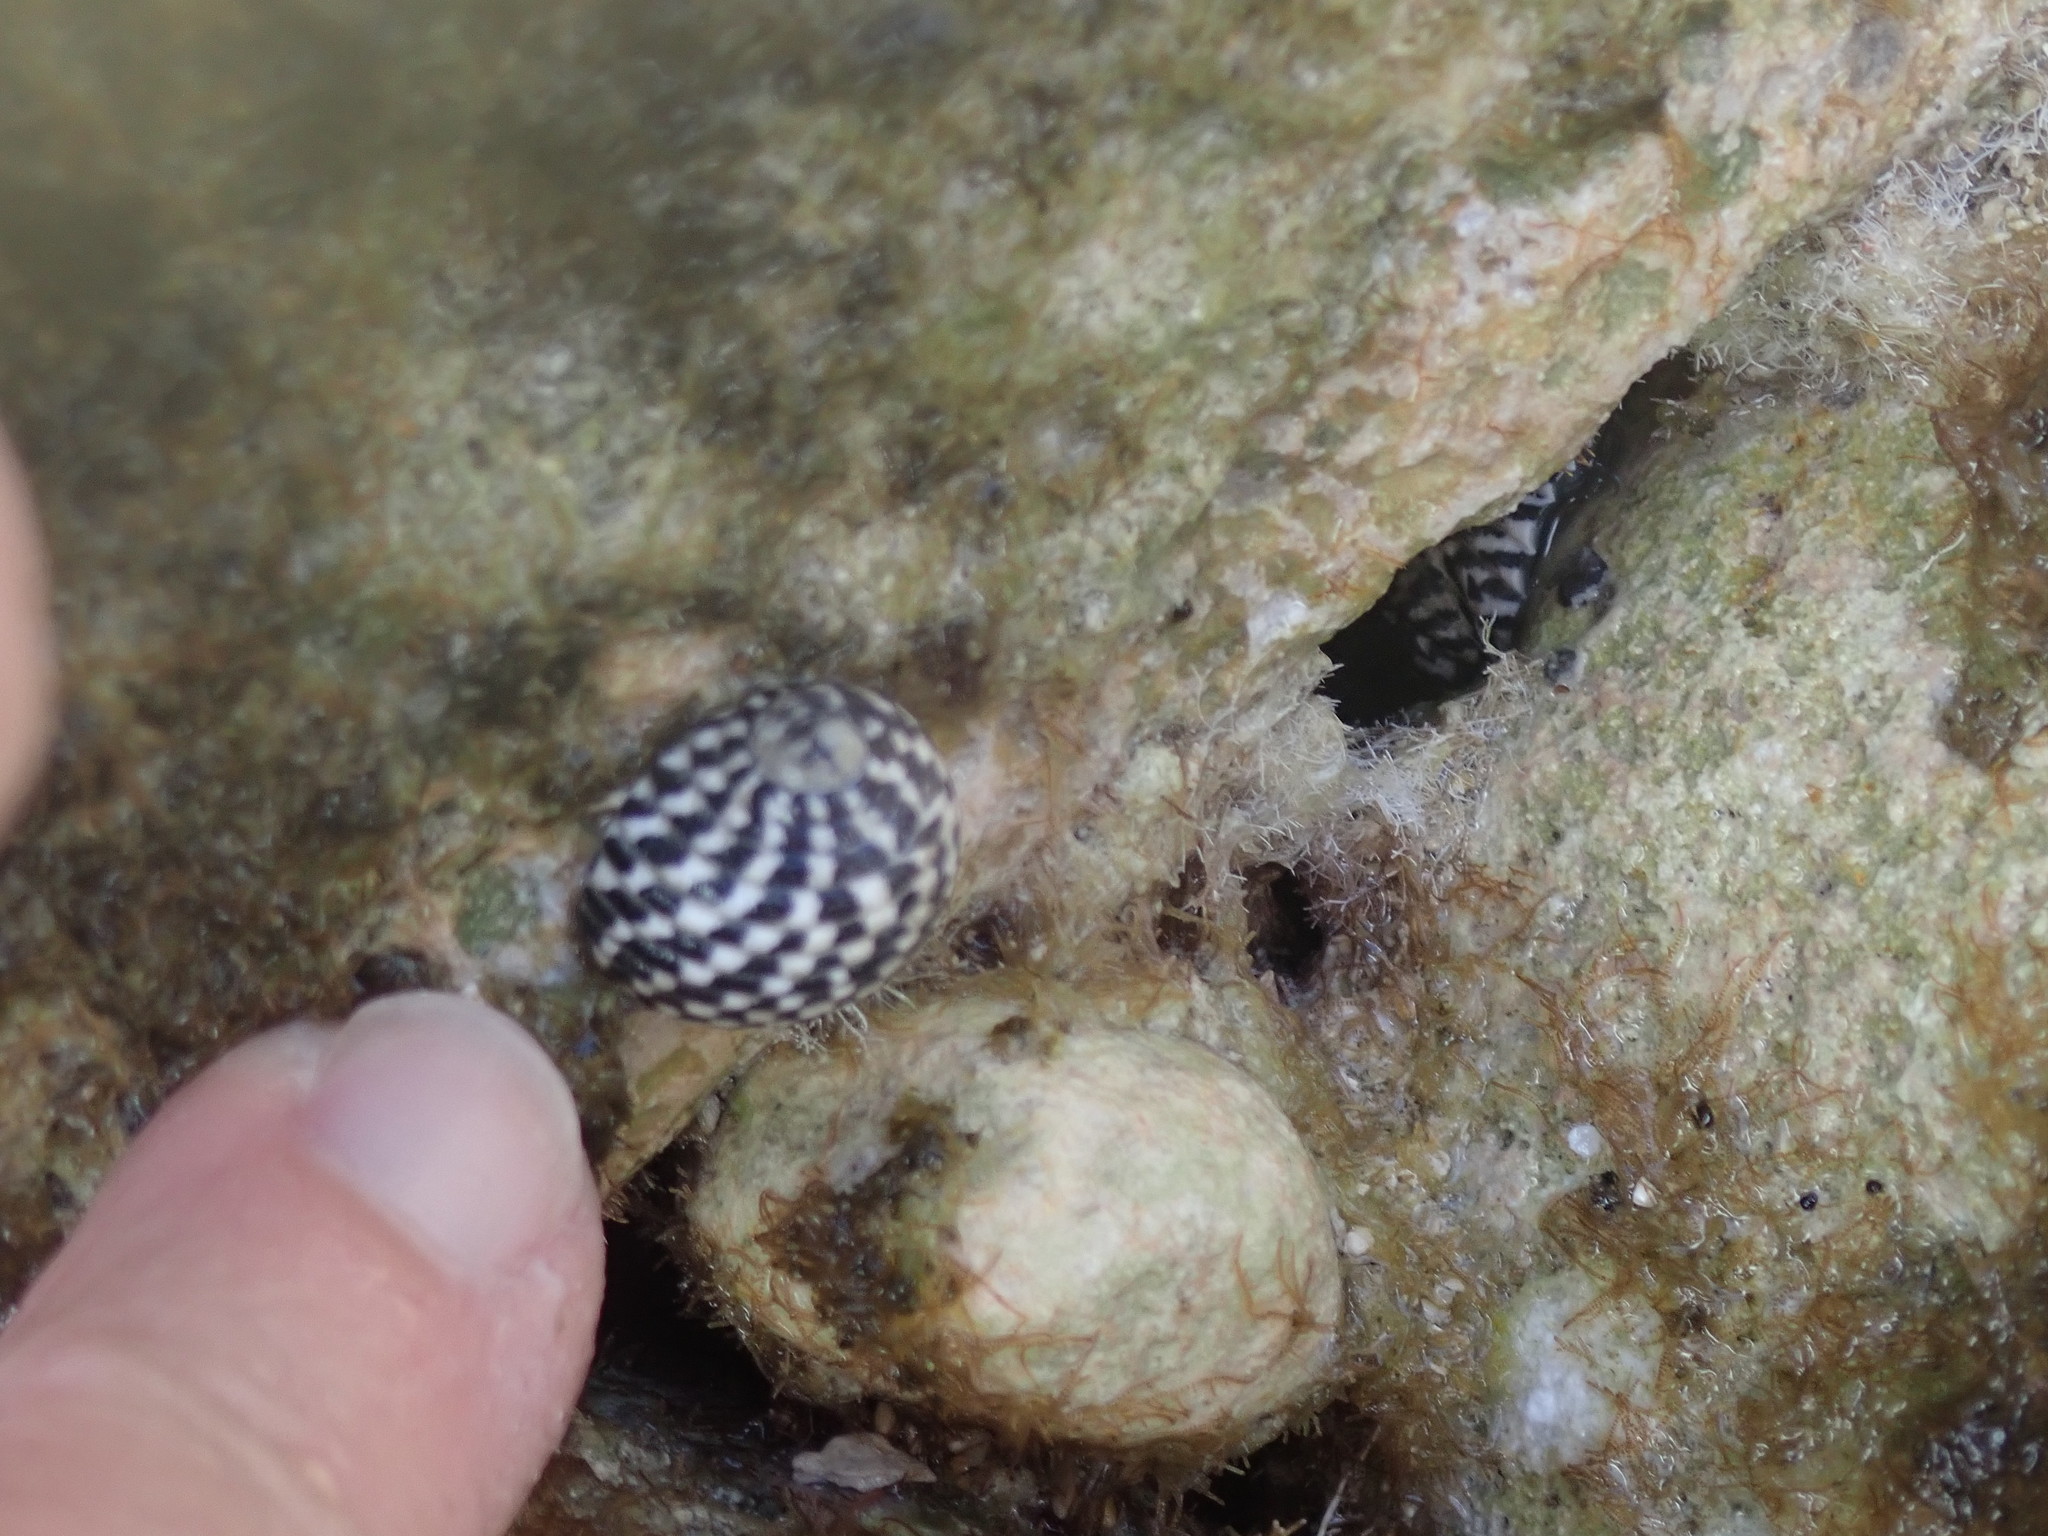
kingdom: Animalia
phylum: Mollusca
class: Gastropoda
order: Cycloneritida
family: Neritidae
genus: Nerita
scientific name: Nerita tessellata
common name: Checkered nerite
